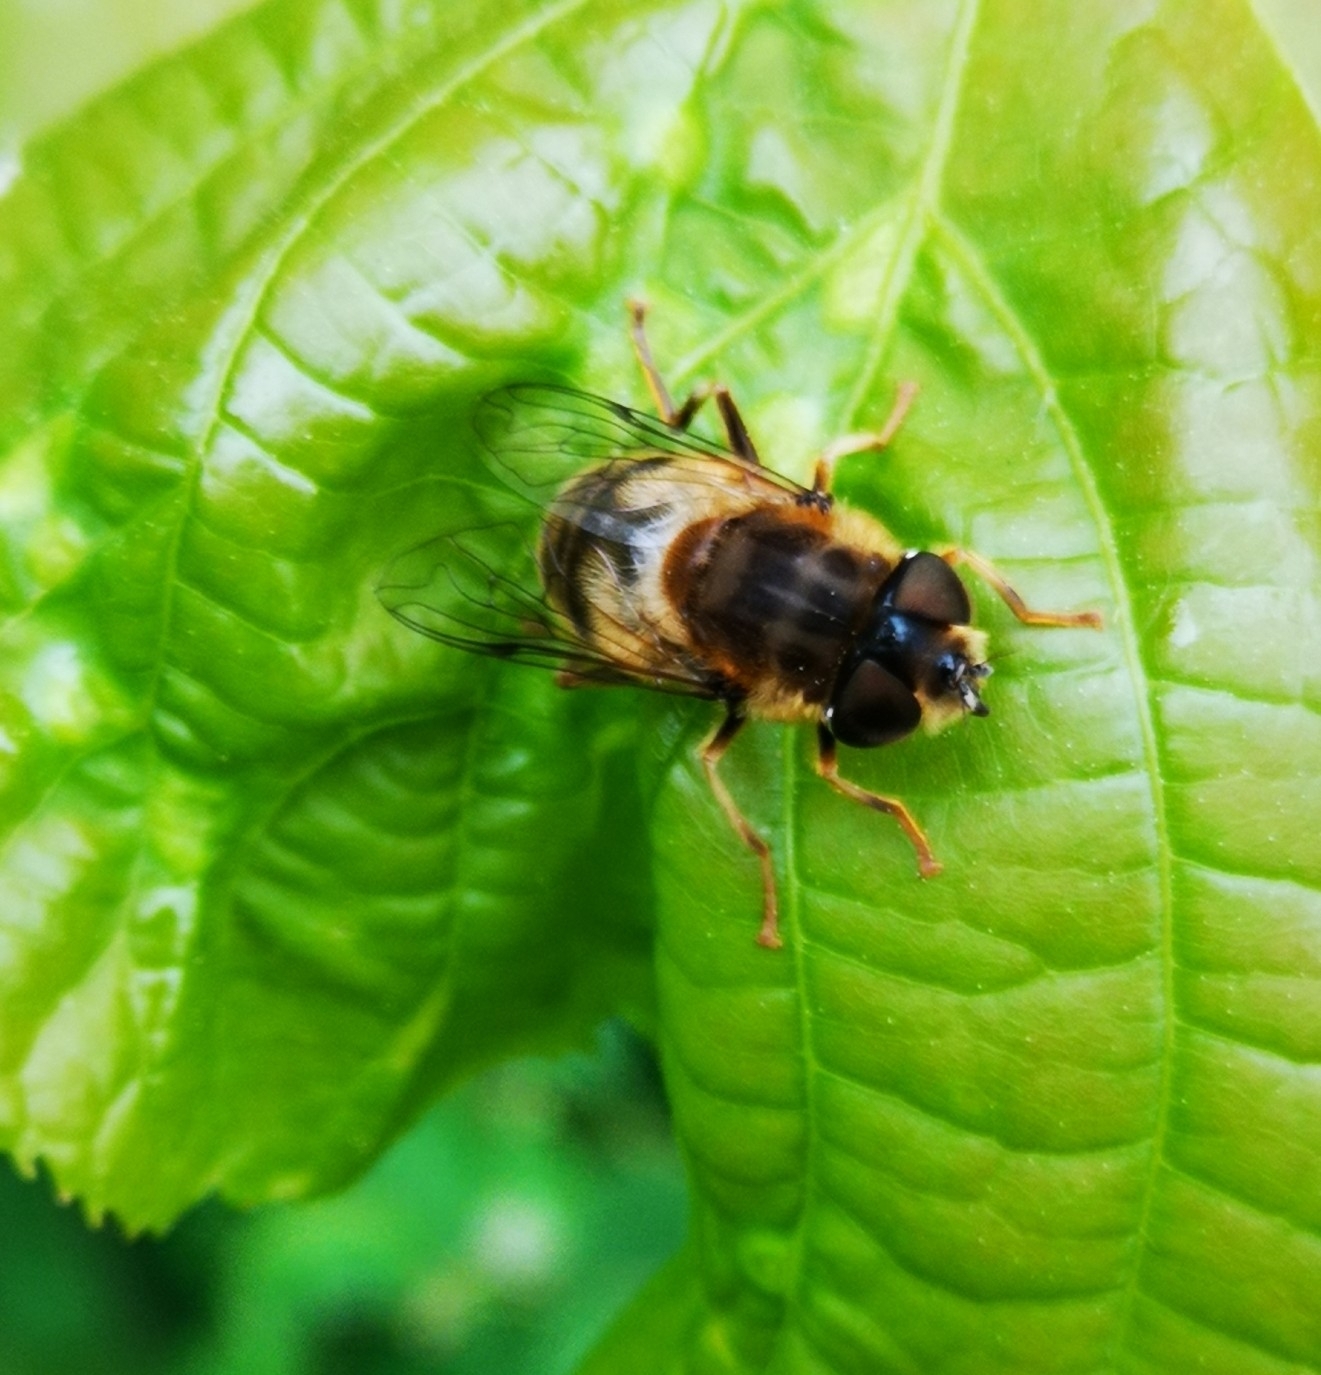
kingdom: Animalia
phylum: Arthropoda
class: Insecta
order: Diptera
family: Syrphidae
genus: Eristalis
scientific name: Eristalis pertinax
